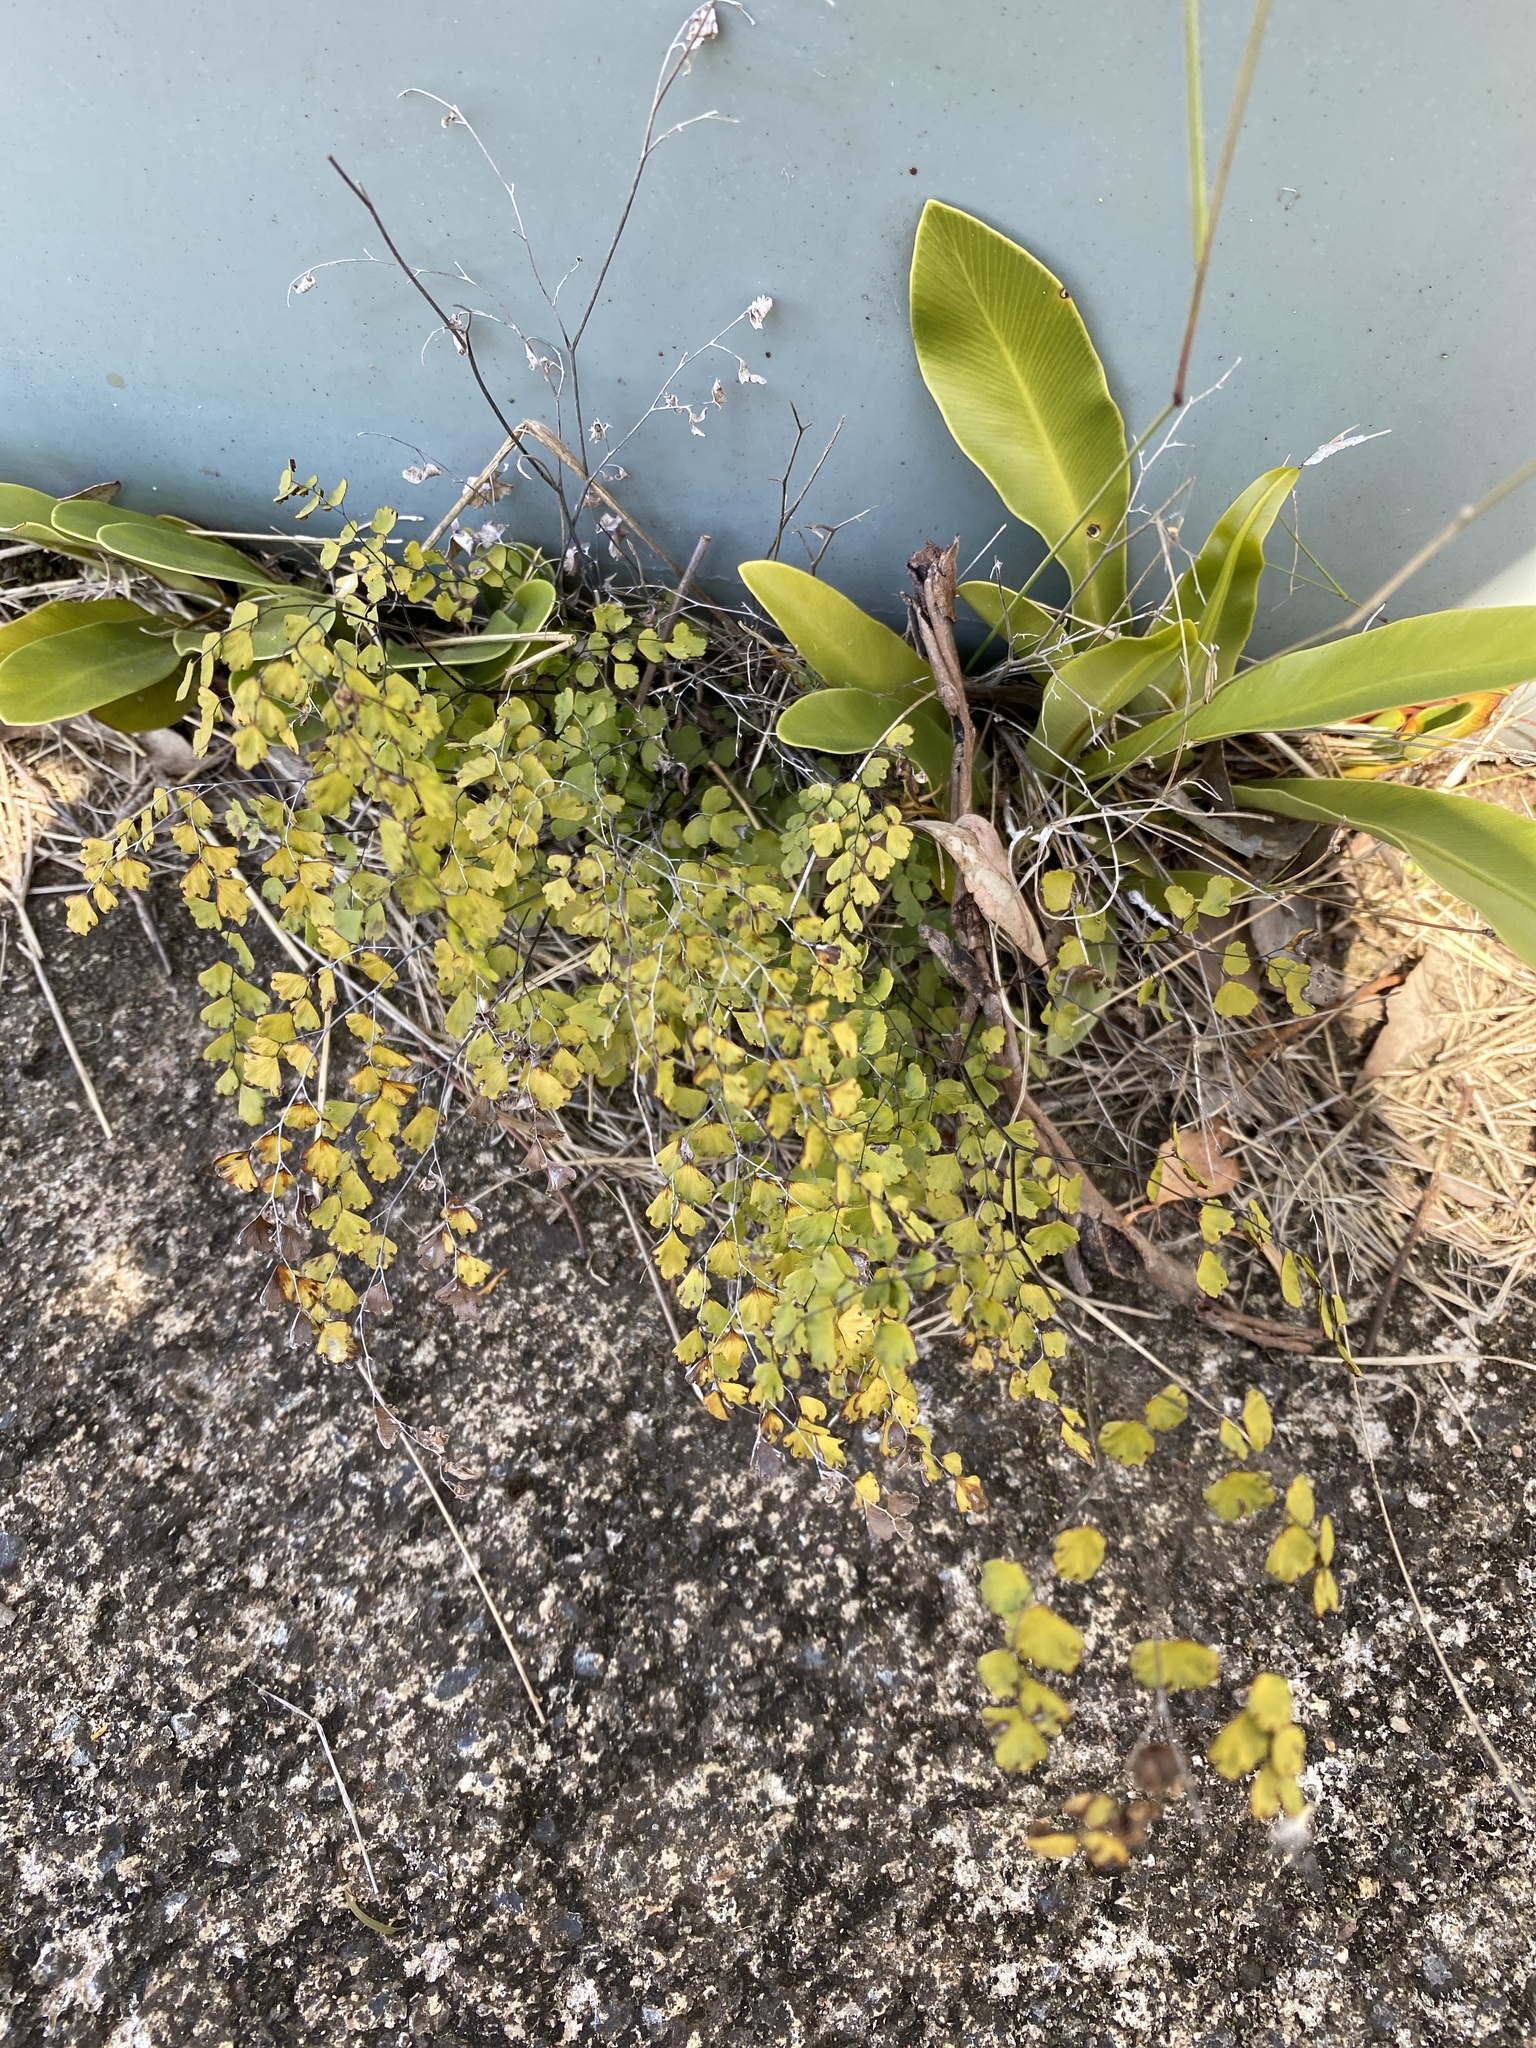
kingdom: Plantae
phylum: Tracheophyta
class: Polypodiopsida
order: Polypodiales
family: Pteridaceae
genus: Adiantum
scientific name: Adiantum atroviride
